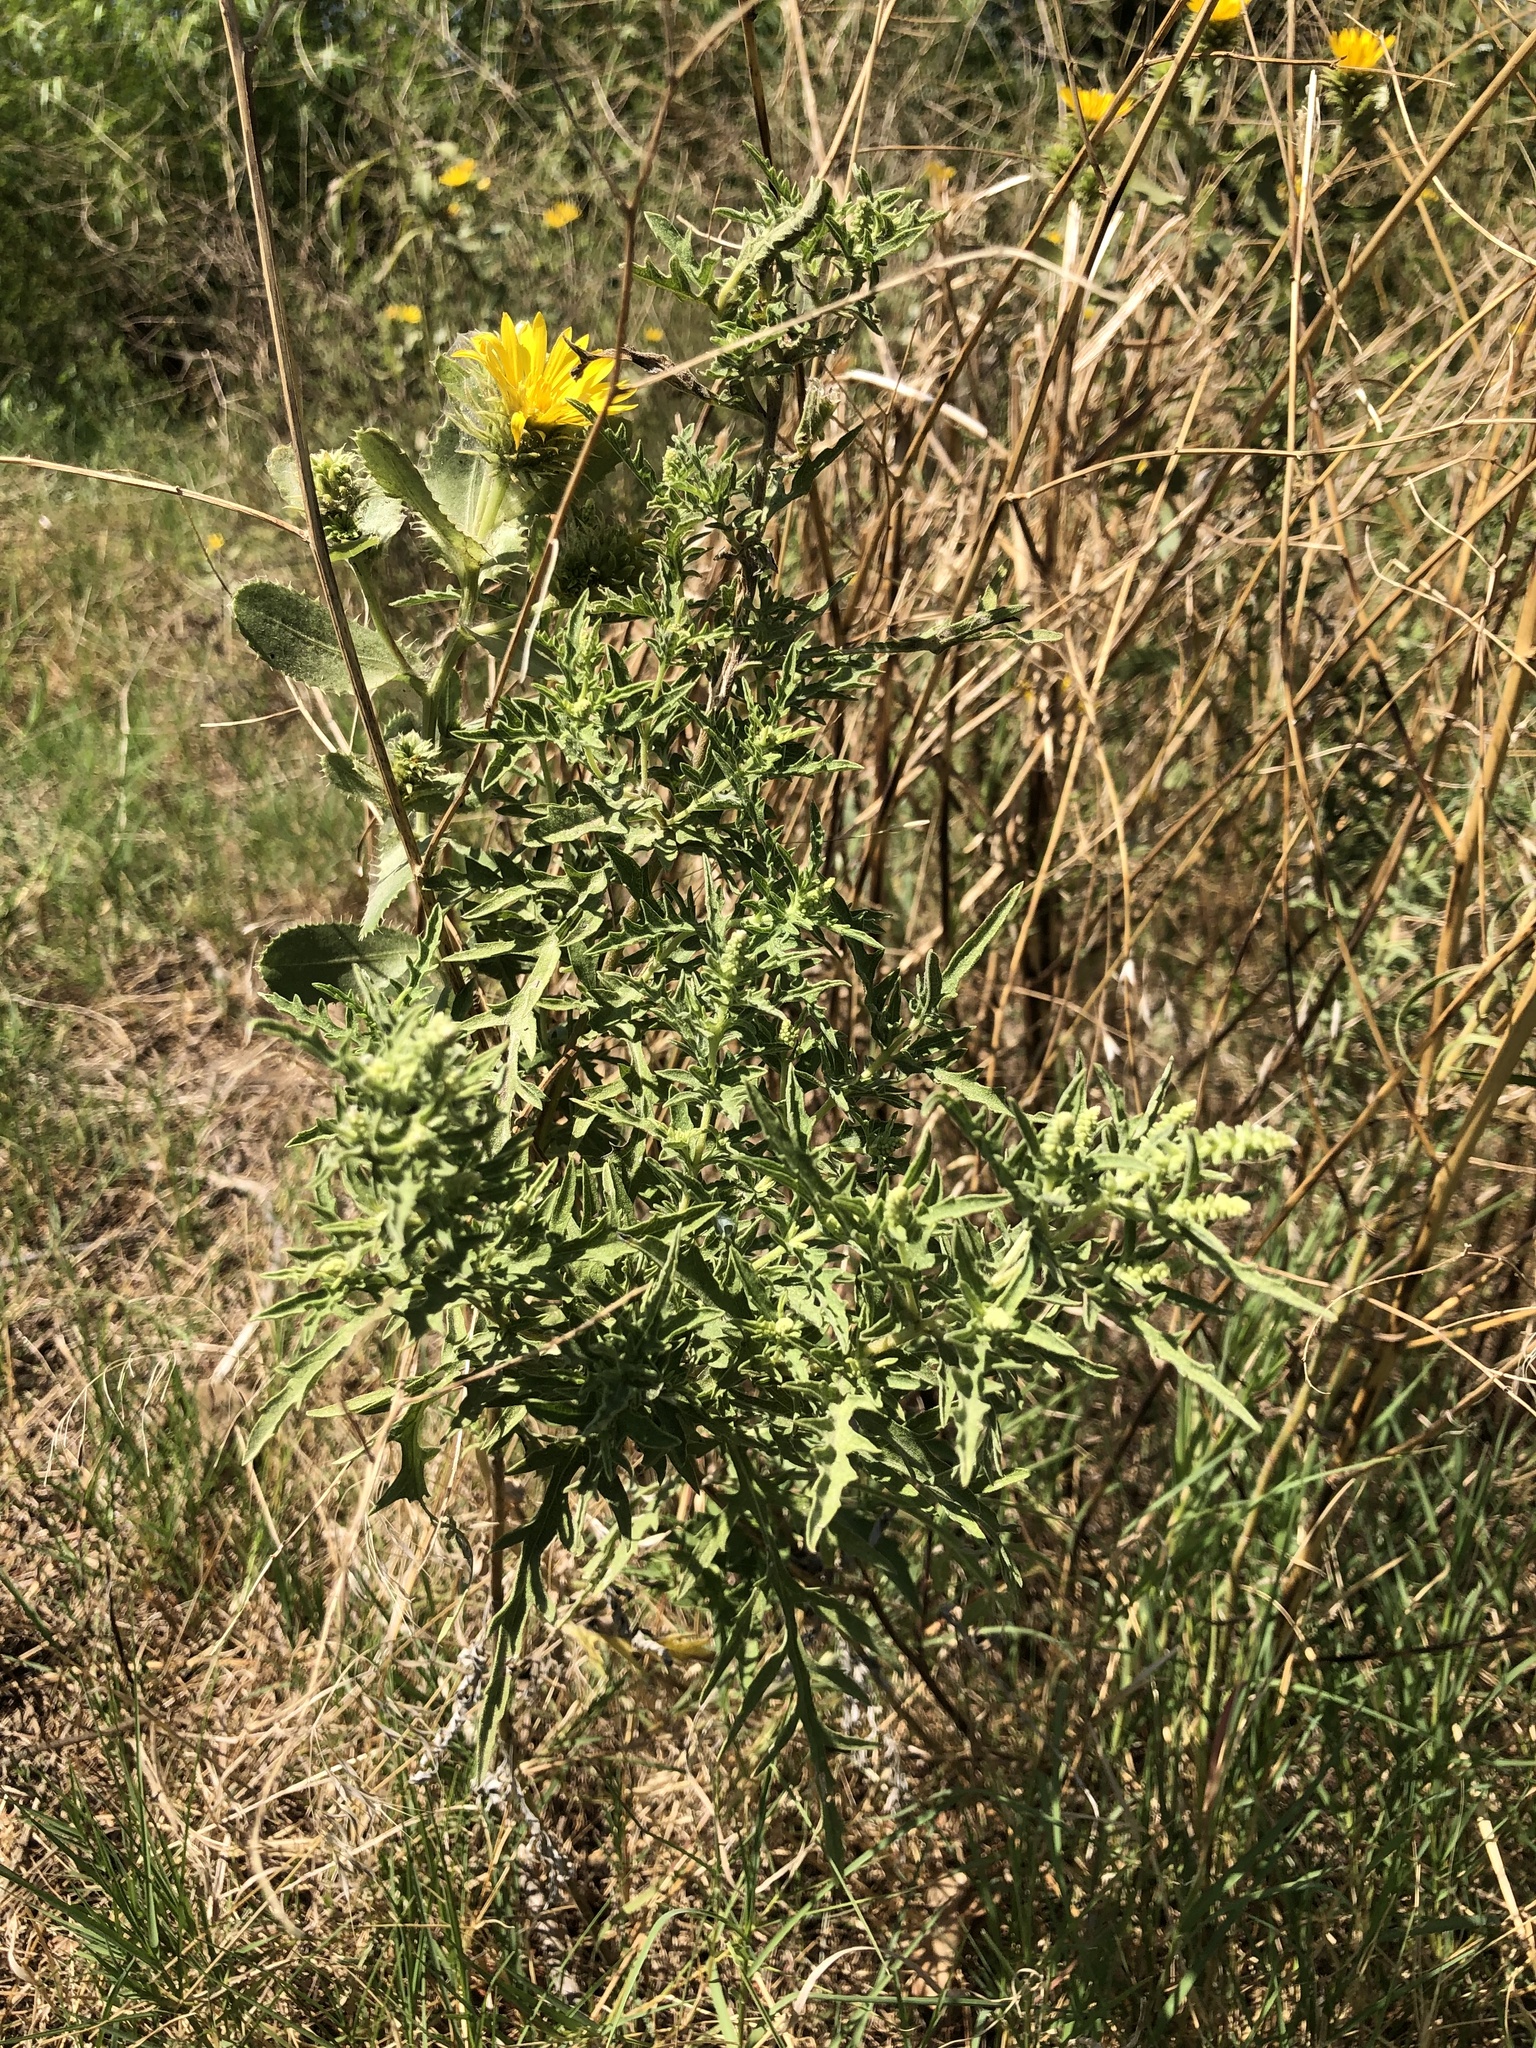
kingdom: Plantae
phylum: Tracheophyta
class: Magnoliopsida
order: Asterales
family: Asteraceae
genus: Ambrosia
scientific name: Ambrosia psilostachya
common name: Perennial ragweed
